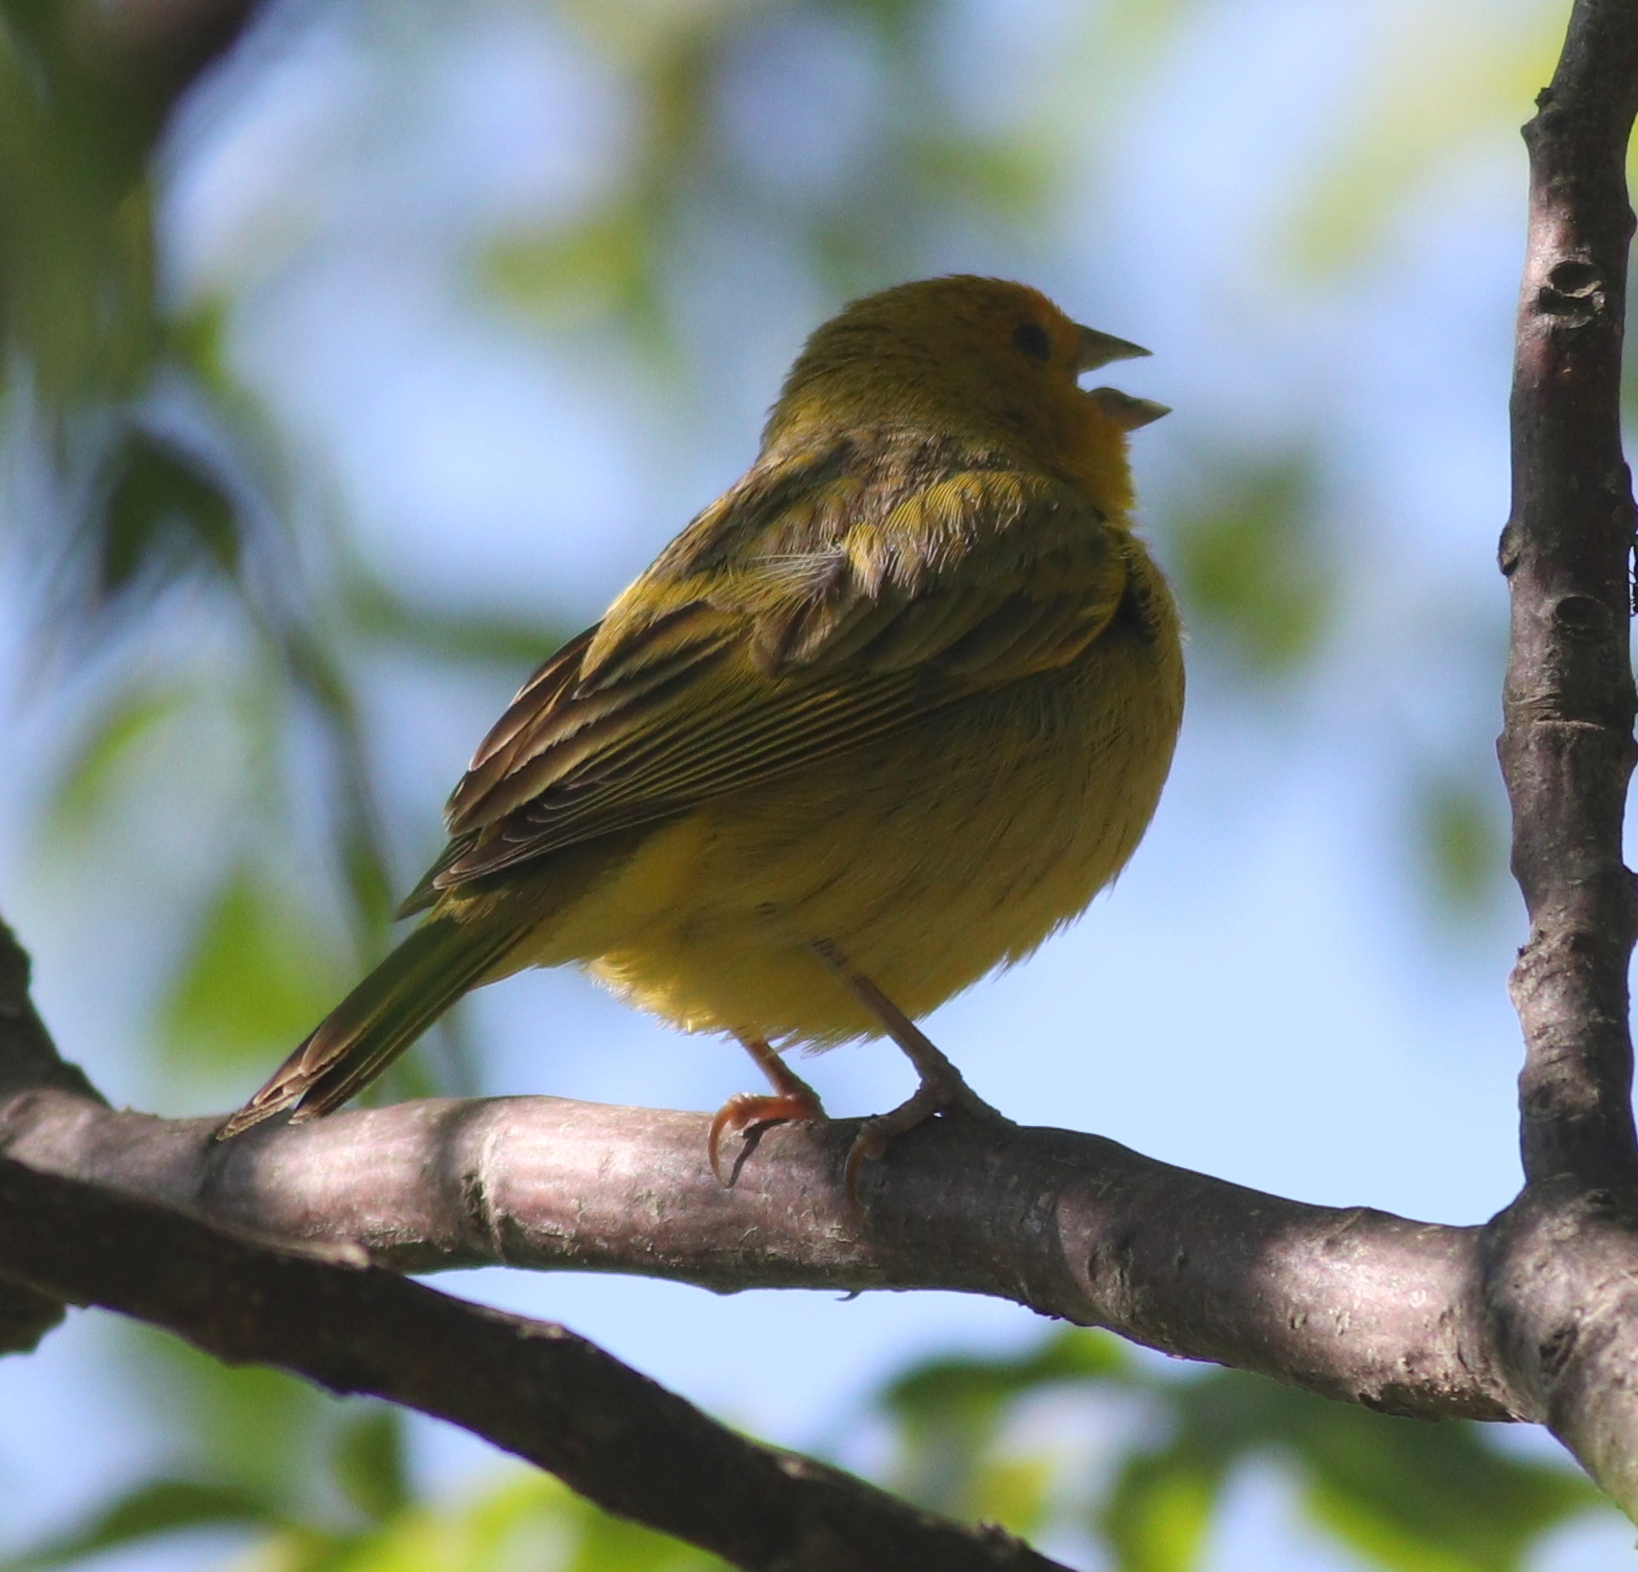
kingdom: Animalia
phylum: Chordata
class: Aves
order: Passeriformes
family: Thraupidae
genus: Sicalis
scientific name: Sicalis flaveola
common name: Saffron finch
